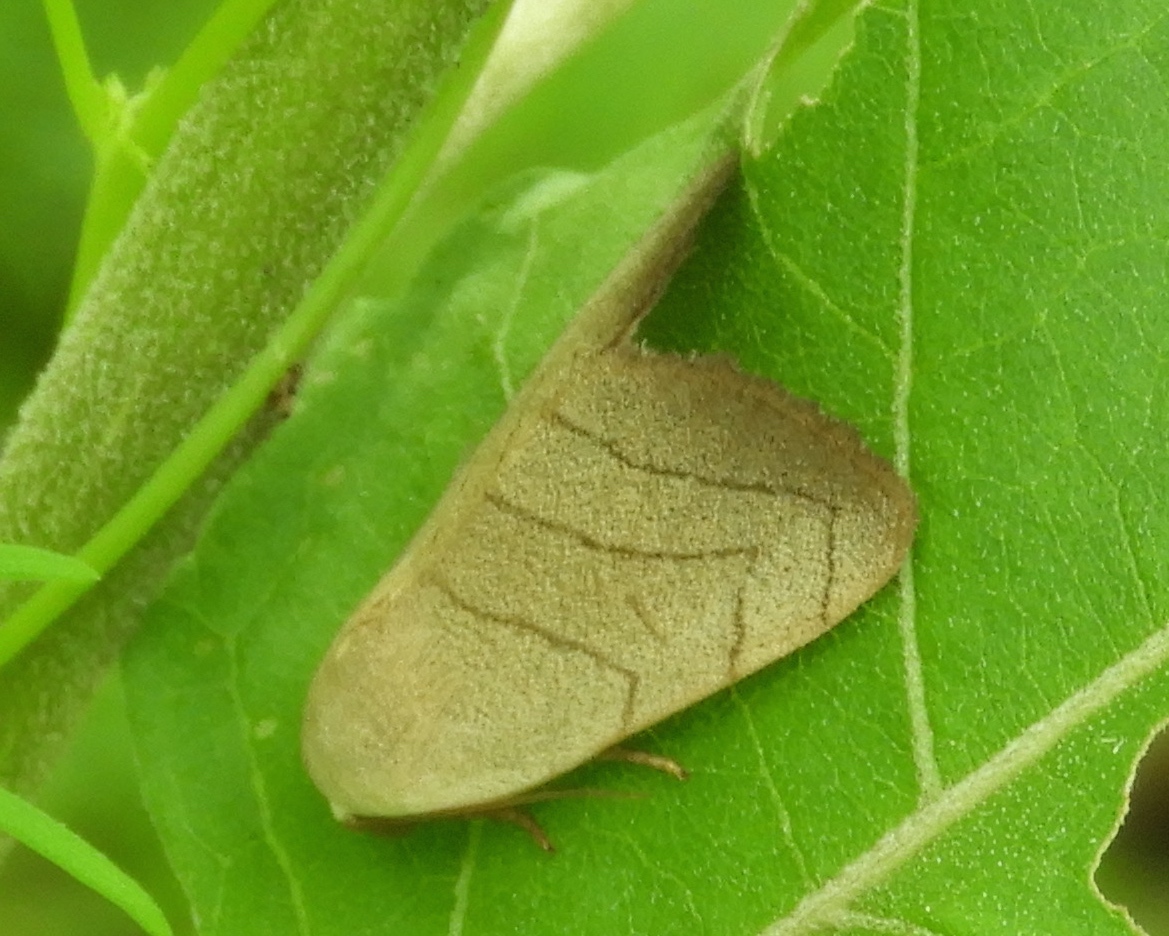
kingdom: Animalia
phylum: Arthropoda
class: Insecta
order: Lepidoptera
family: Noctuidae
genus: Bagisara
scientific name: Bagisara
